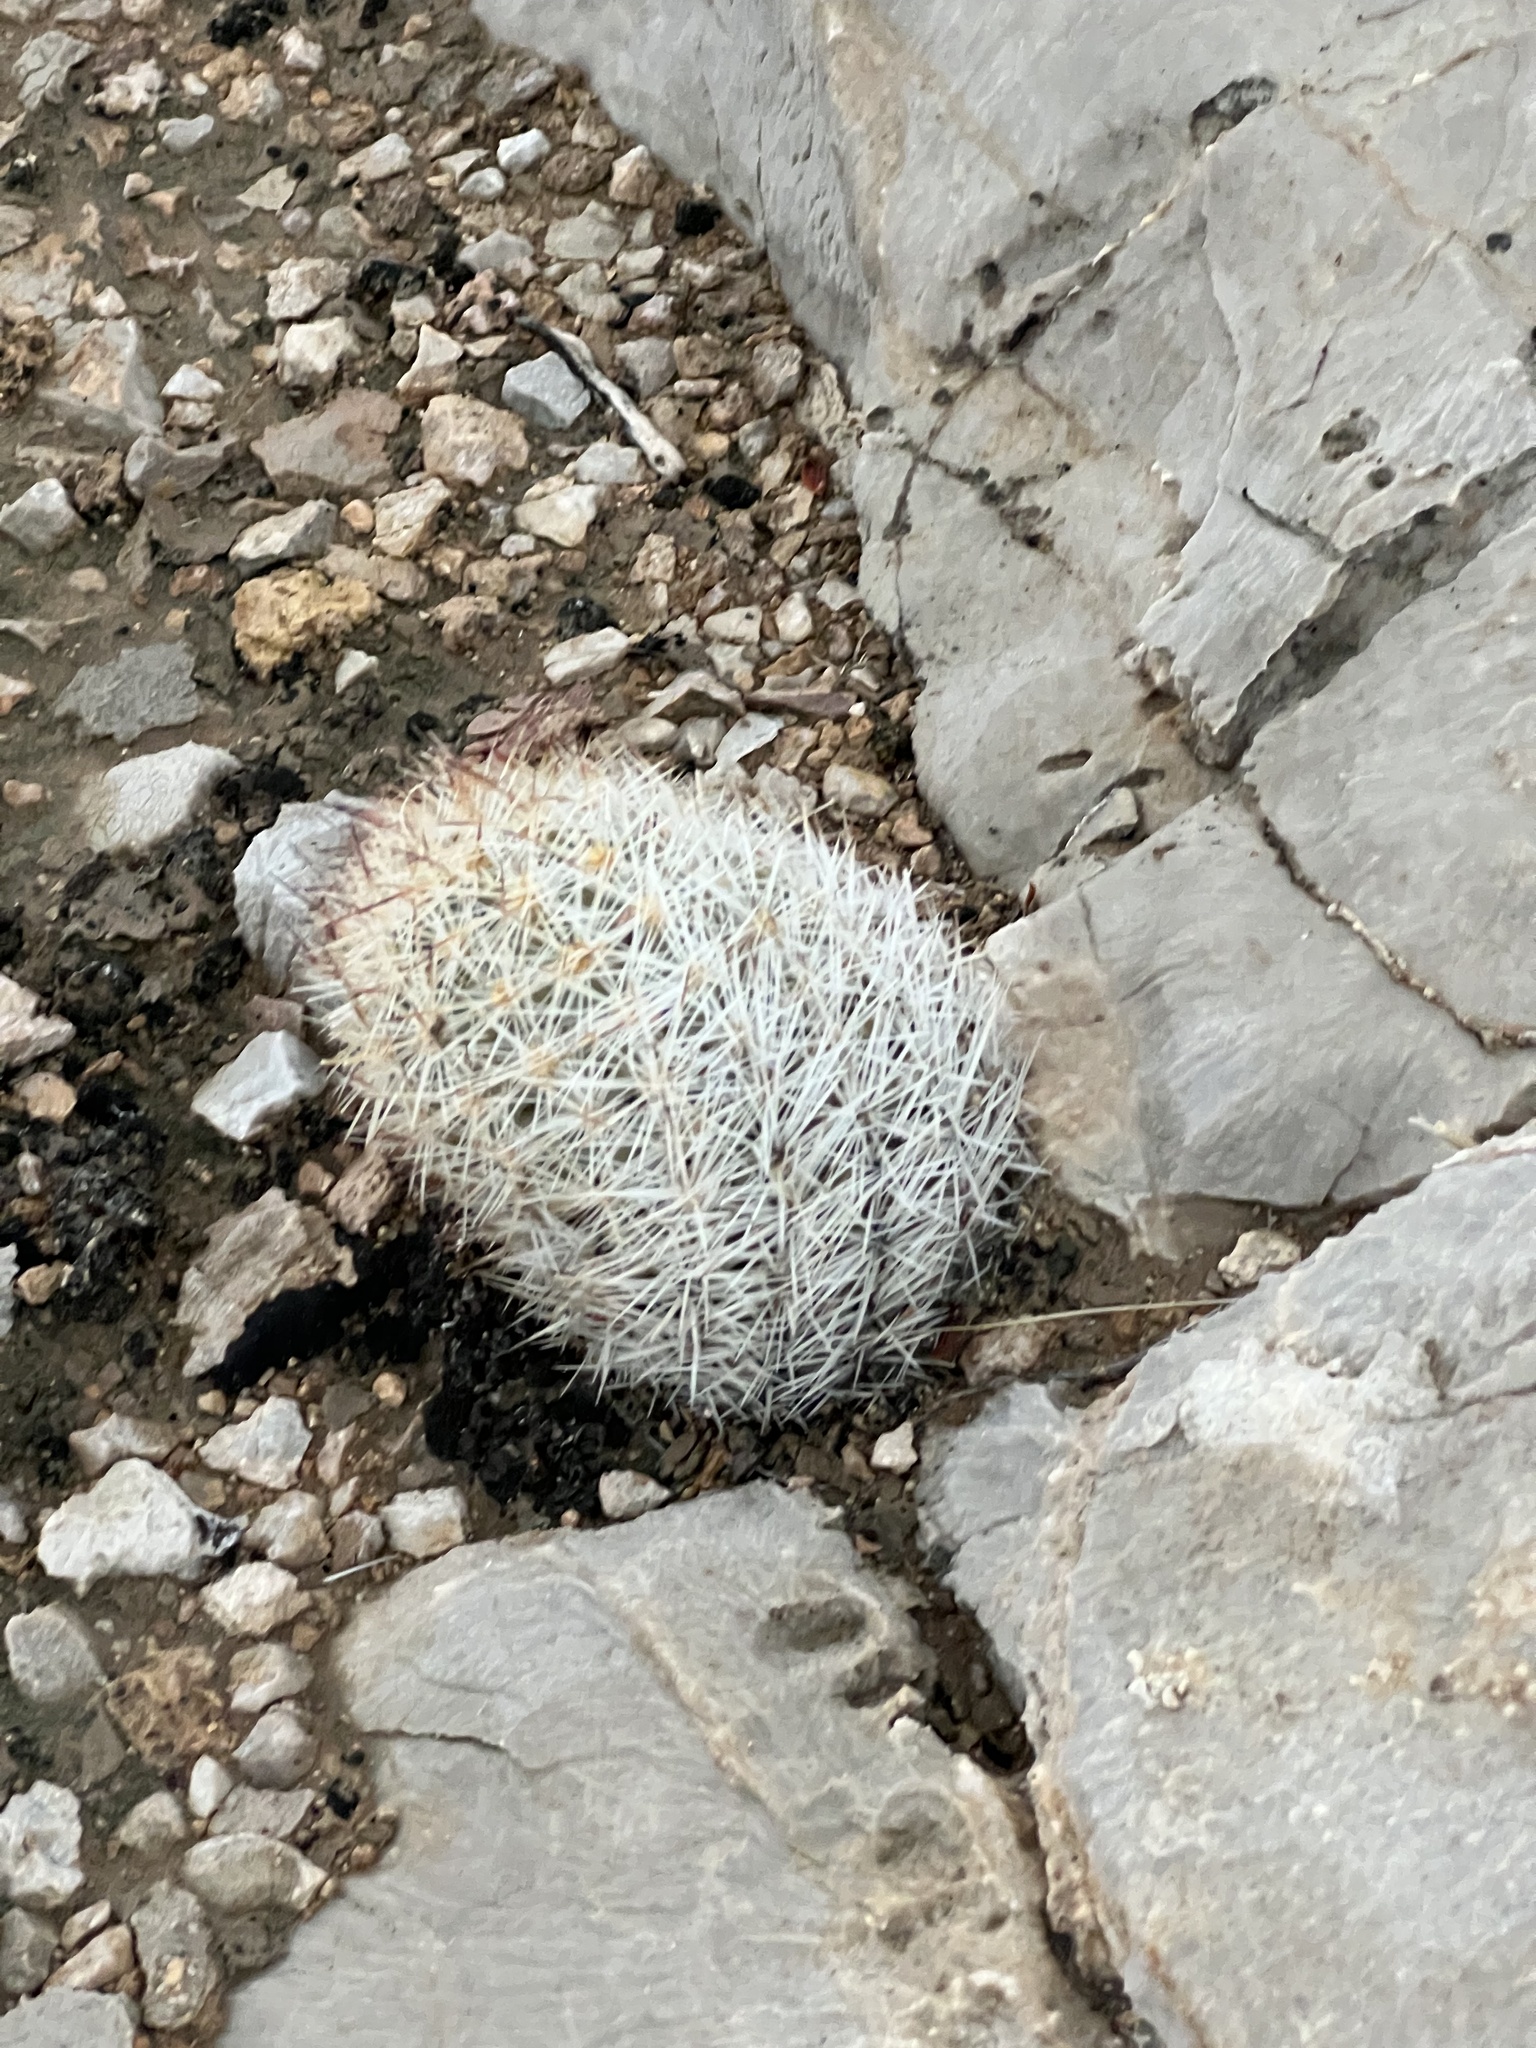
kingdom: Plantae
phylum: Tracheophyta
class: Magnoliopsida
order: Caryophyllales
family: Cactaceae
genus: Pelecyphora
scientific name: Pelecyphora dasyacantha
